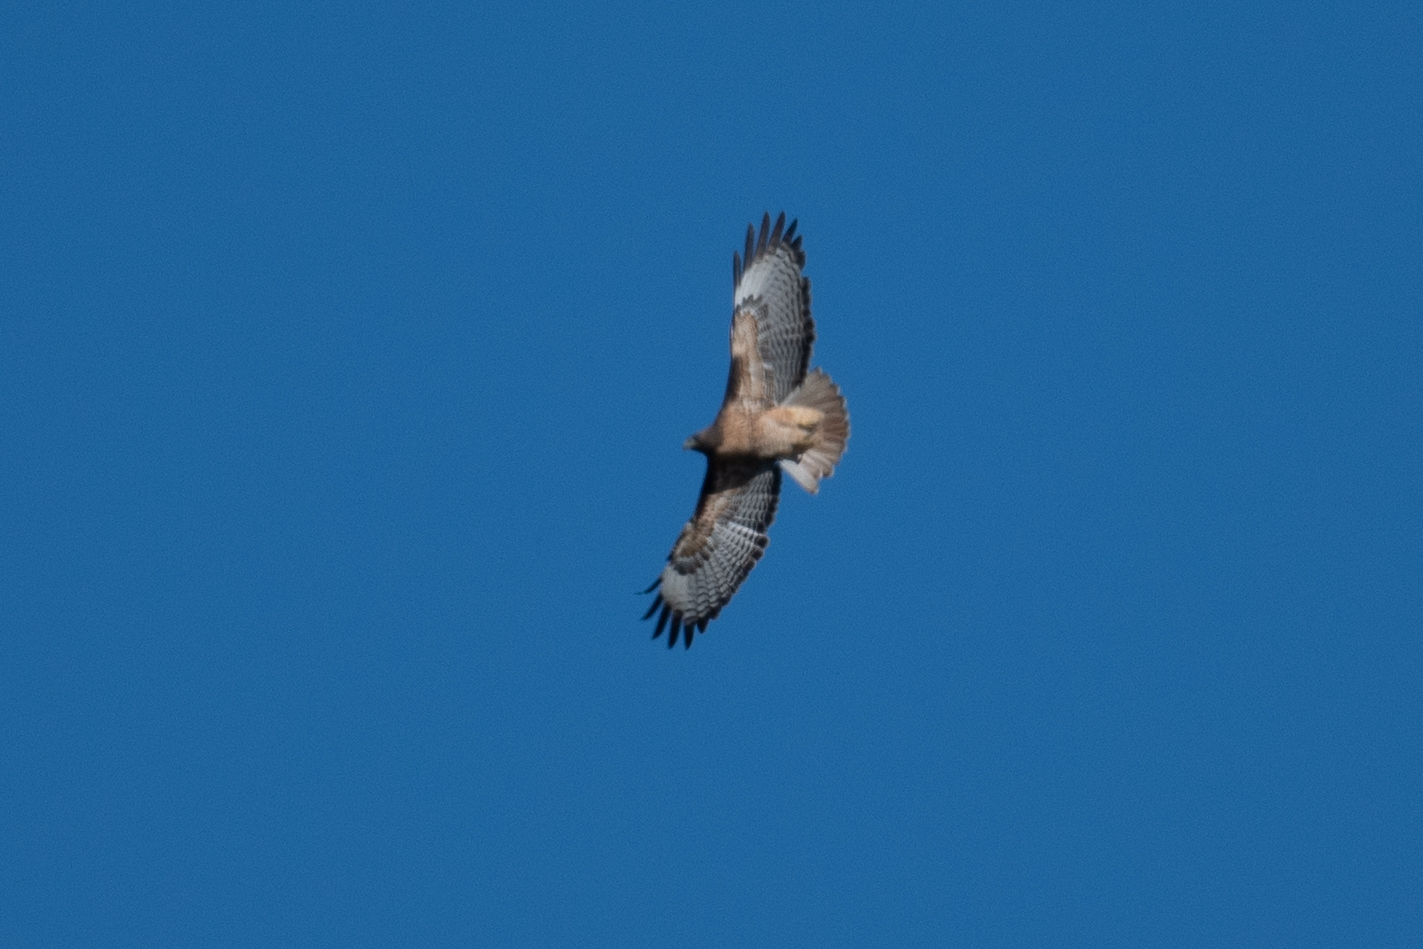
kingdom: Animalia
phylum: Chordata
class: Aves
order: Accipitriformes
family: Accipitridae
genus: Buteo
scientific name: Buteo jamaicensis
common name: Red-tailed hawk
